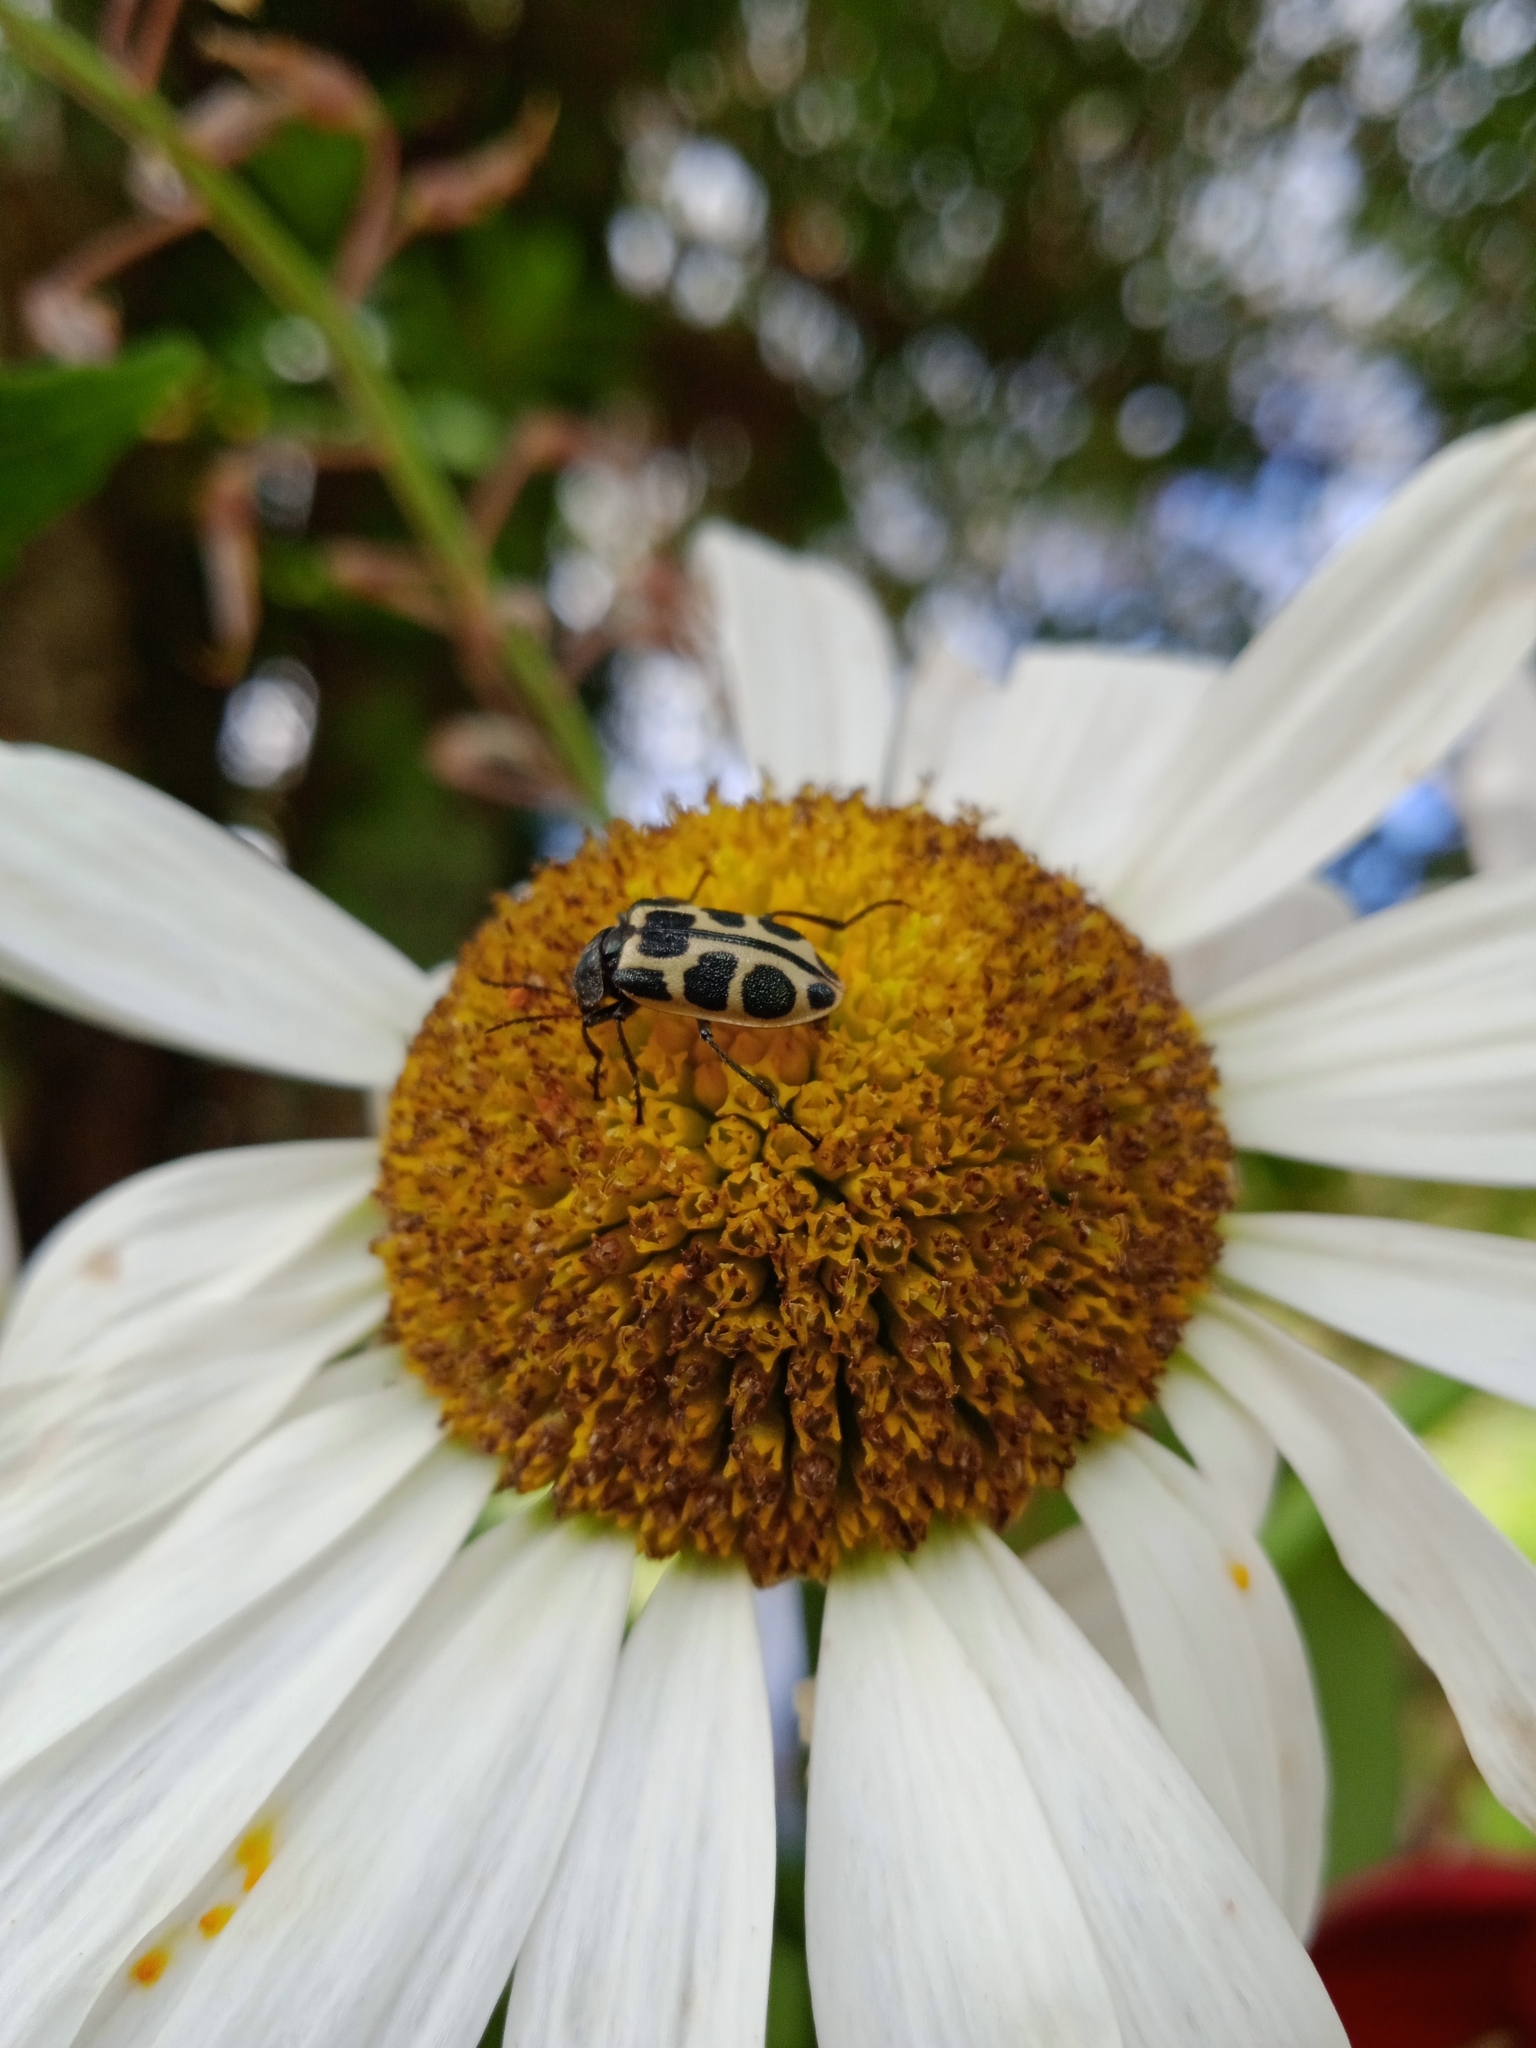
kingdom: Animalia
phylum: Arthropoda
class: Insecta
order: Coleoptera
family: Melyridae
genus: Astylus
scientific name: Astylus
